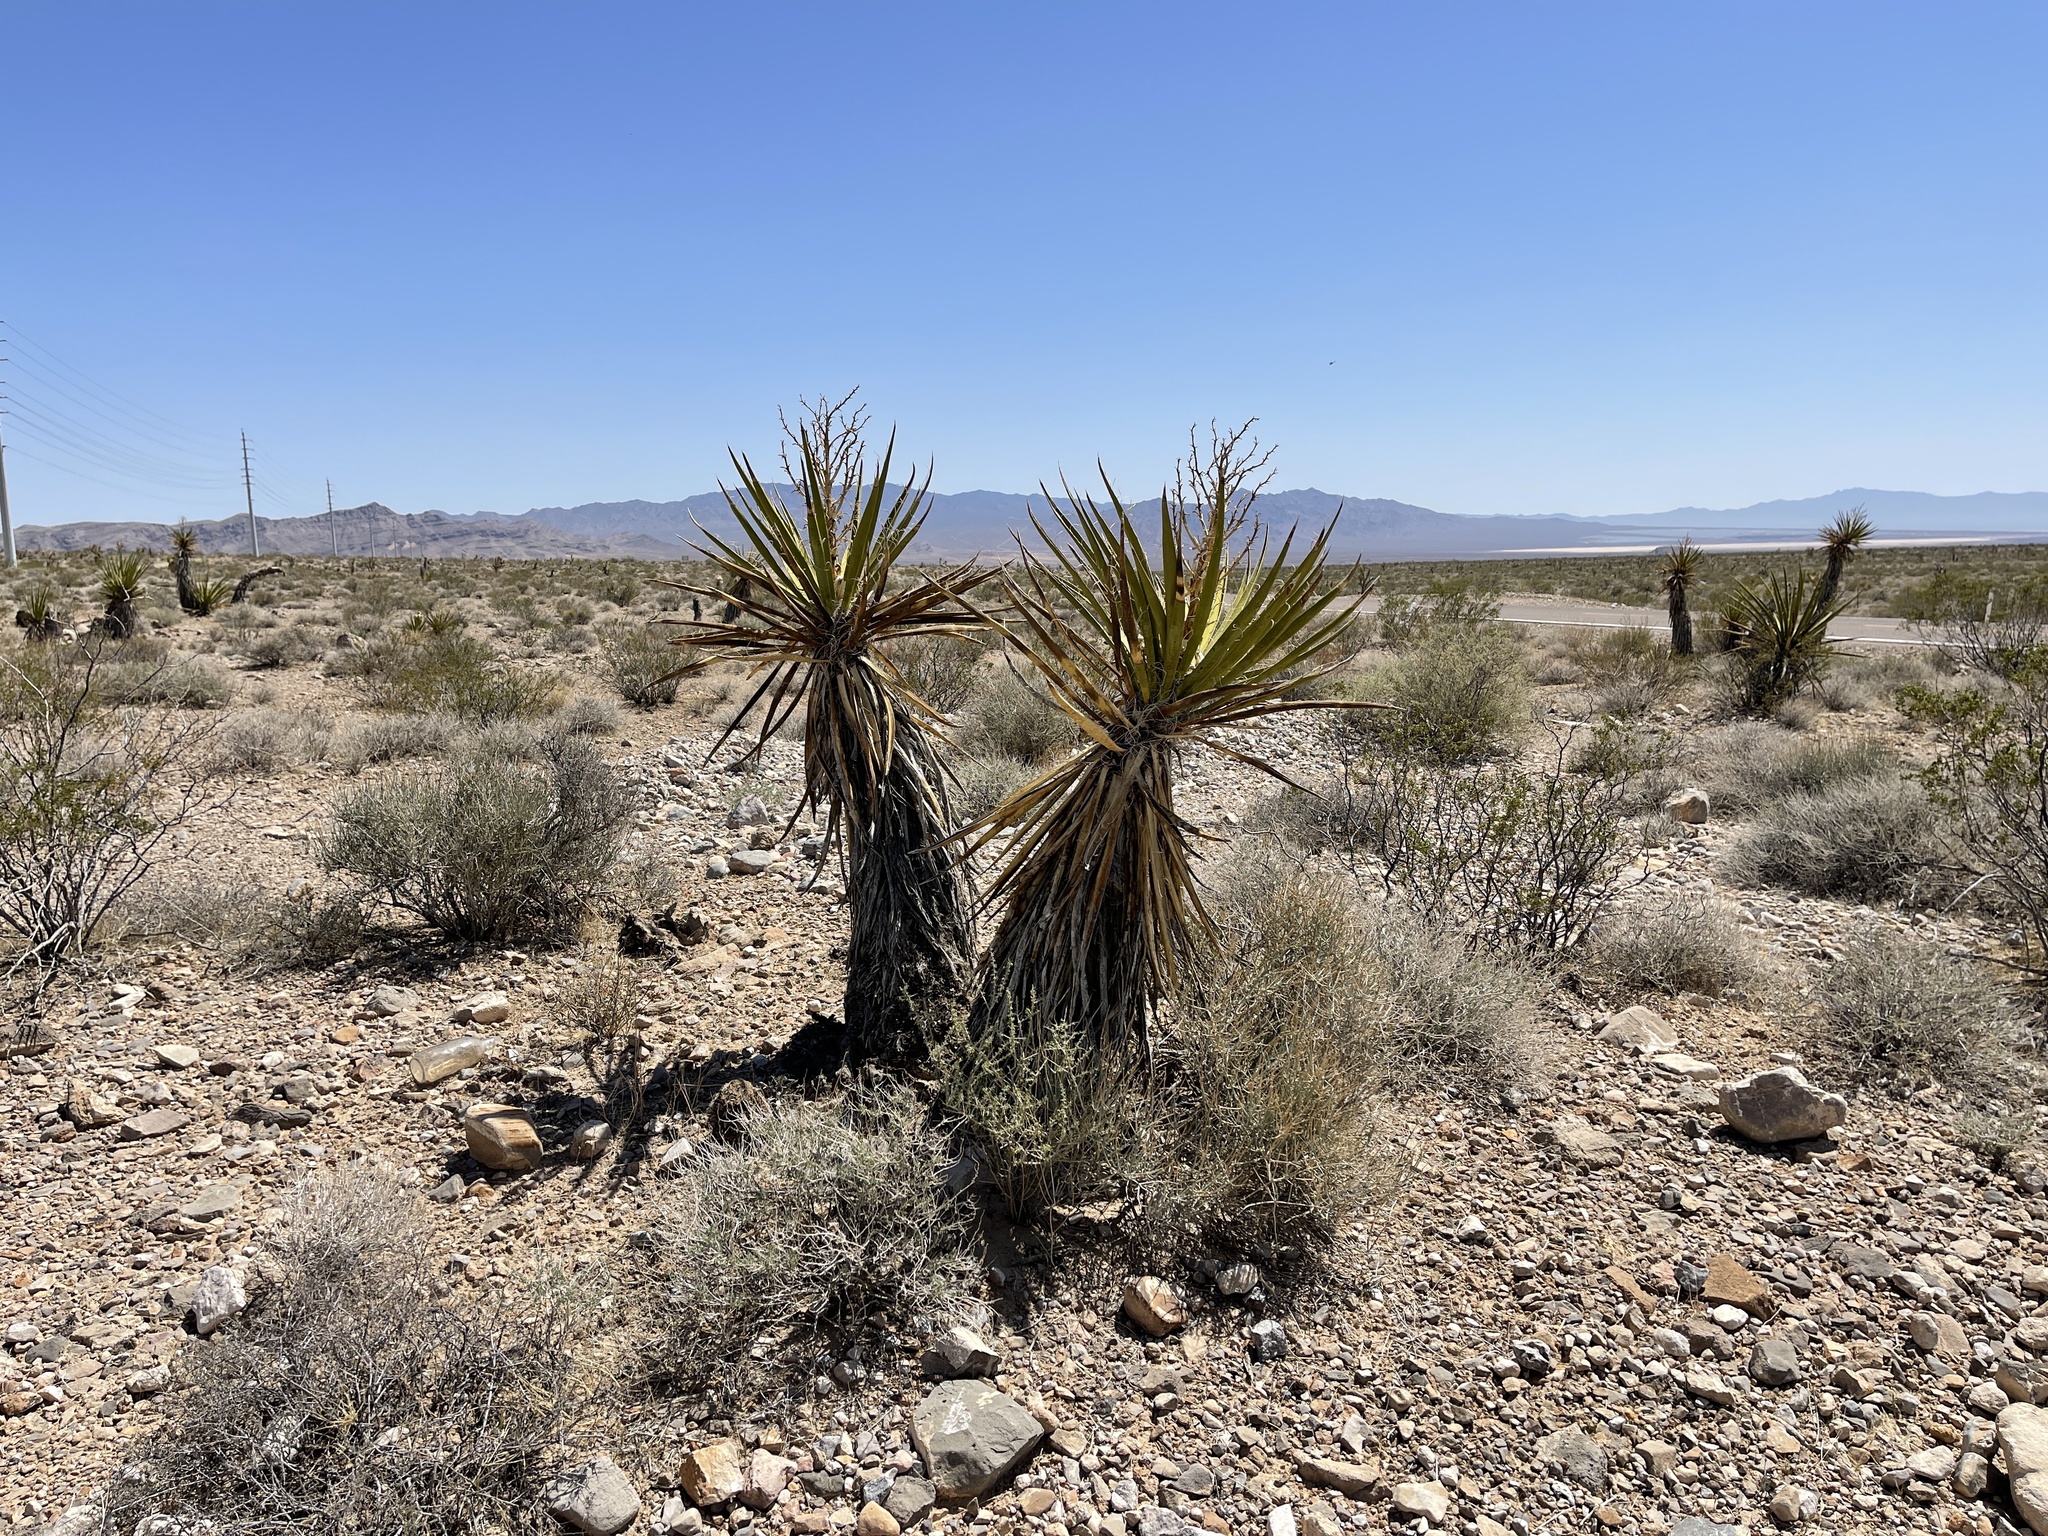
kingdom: Plantae
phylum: Tracheophyta
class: Liliopsida
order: Asparagales
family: Asparagaceae
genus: Yucca
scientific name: Yucca schidigera
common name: Mojave yucca
